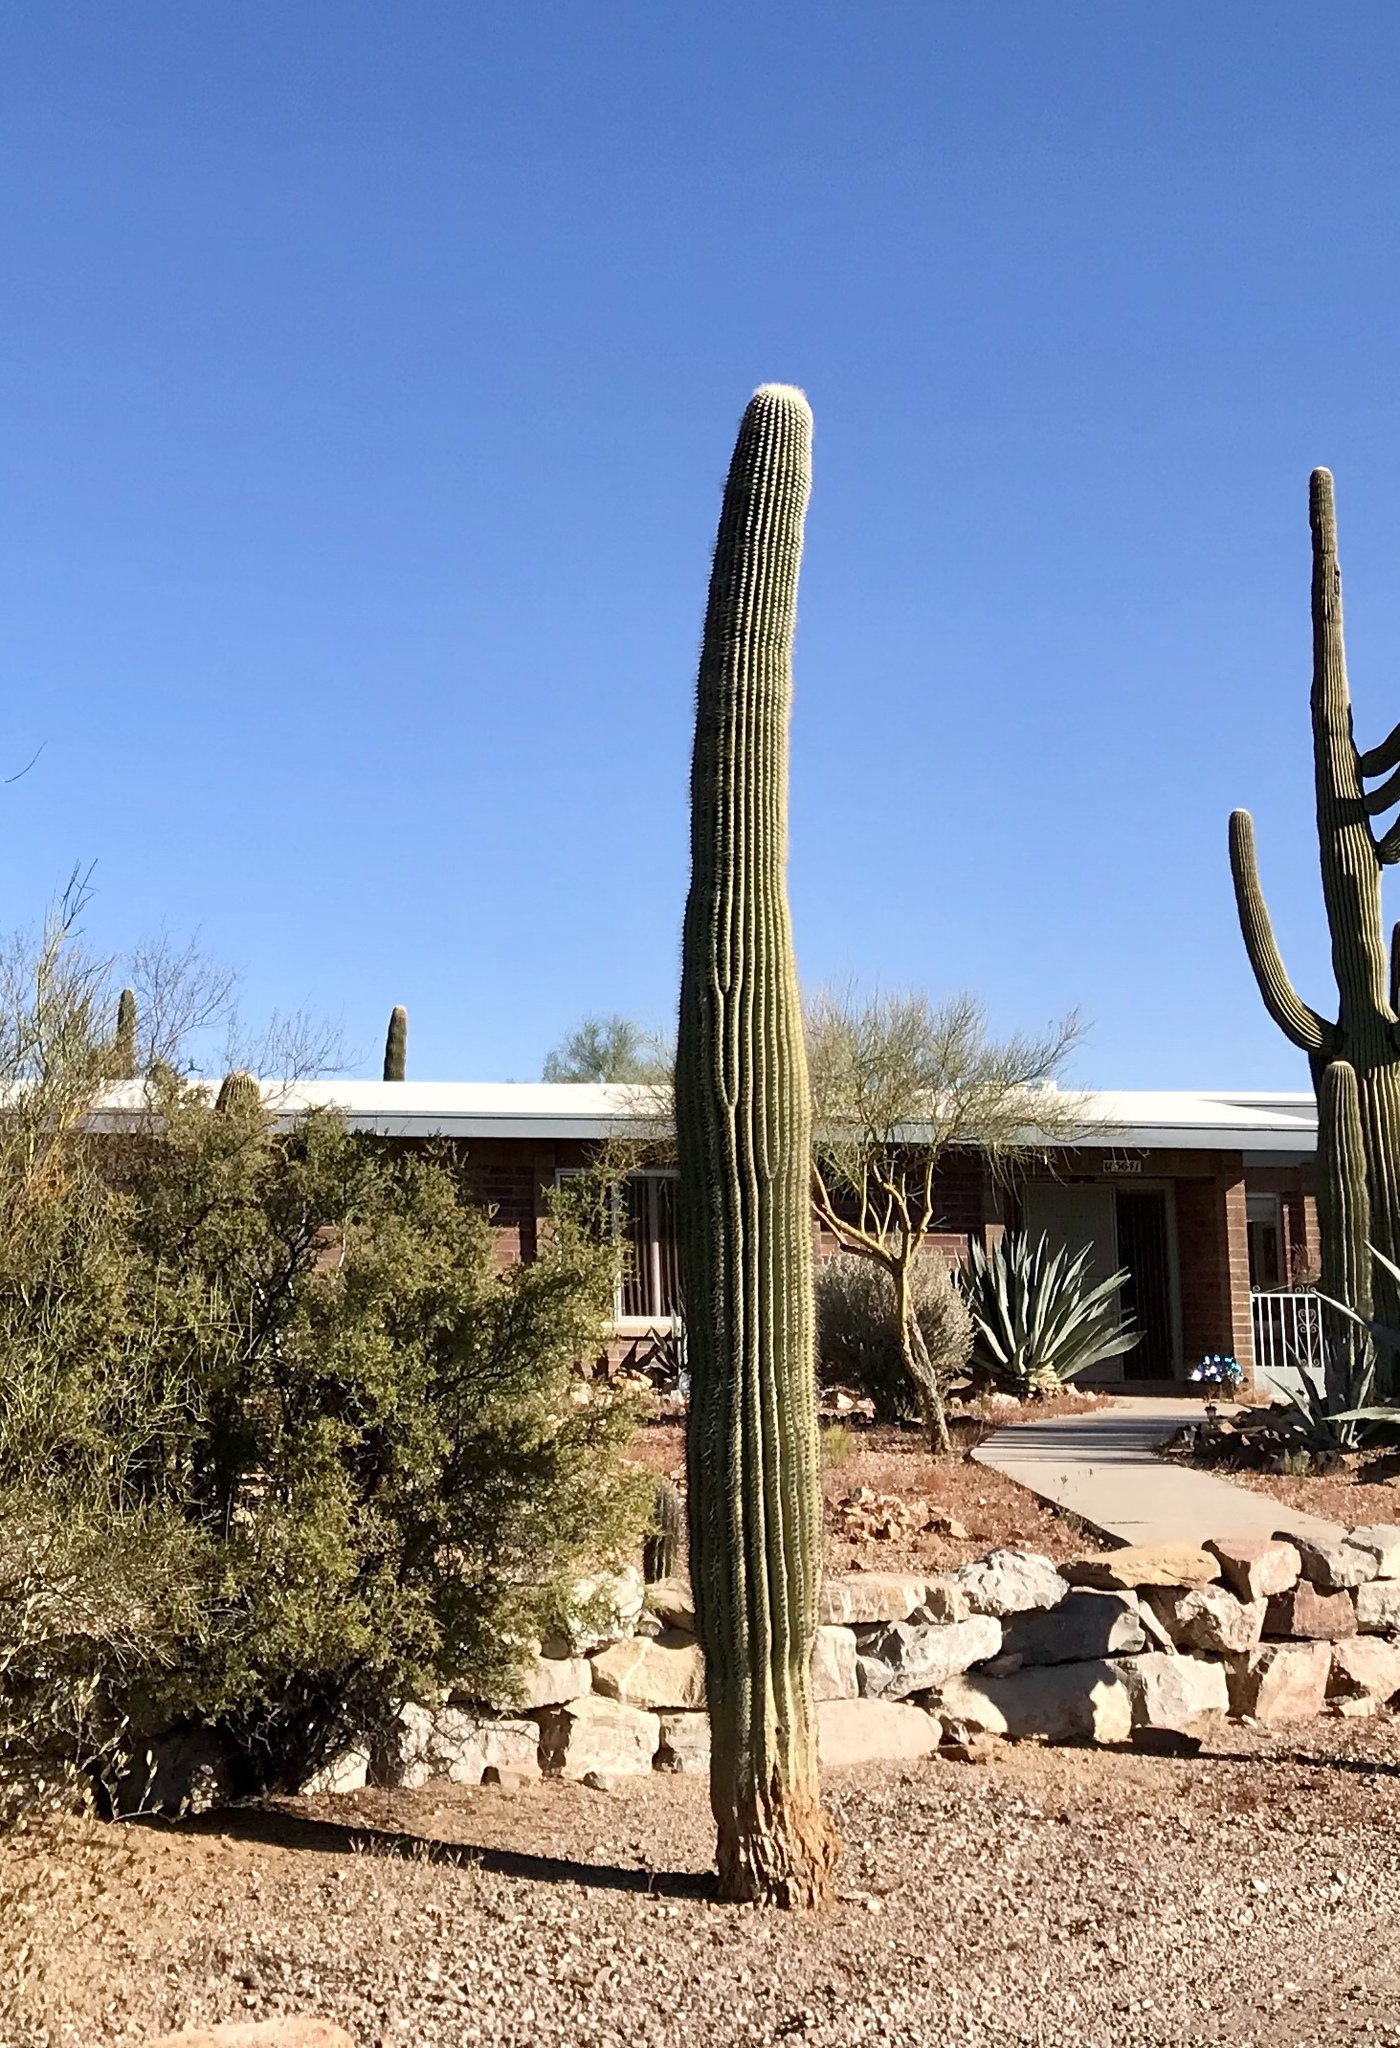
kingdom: Plantae
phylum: Tracheophyta
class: Magnoliopsida
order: Caryophyllales
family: Cactaceae
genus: Carnegiea
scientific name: Carnegiea gigantea
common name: Saguaro
